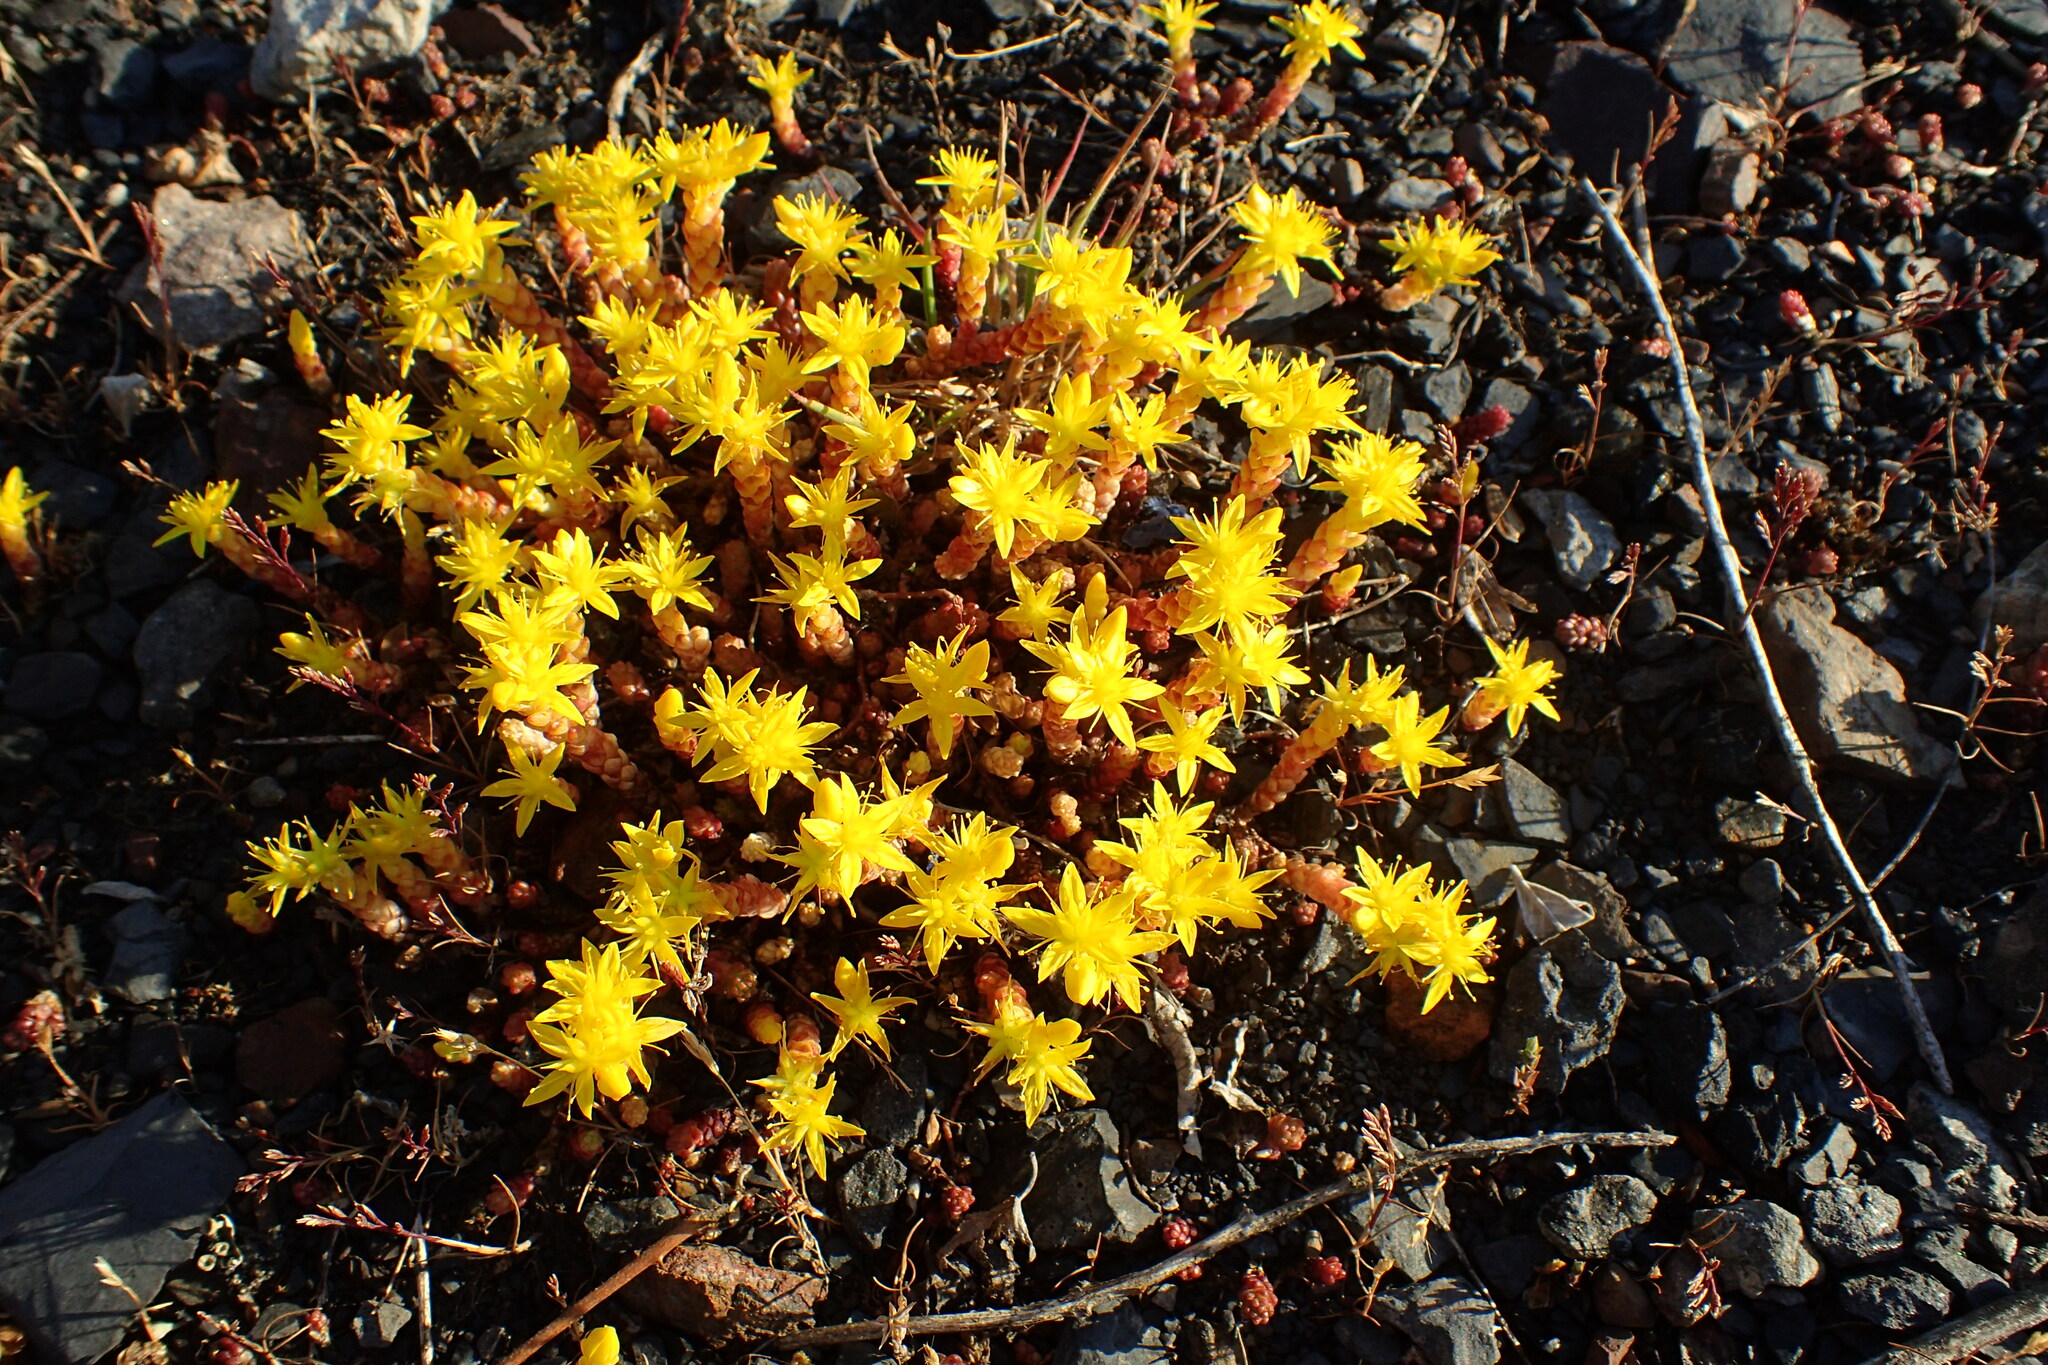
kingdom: Plantae
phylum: Tracheophyta
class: Magnoliopsida
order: Saxifragales
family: Crassulaceae
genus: Sedum
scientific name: Sedum acre
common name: Biting stonecrop
